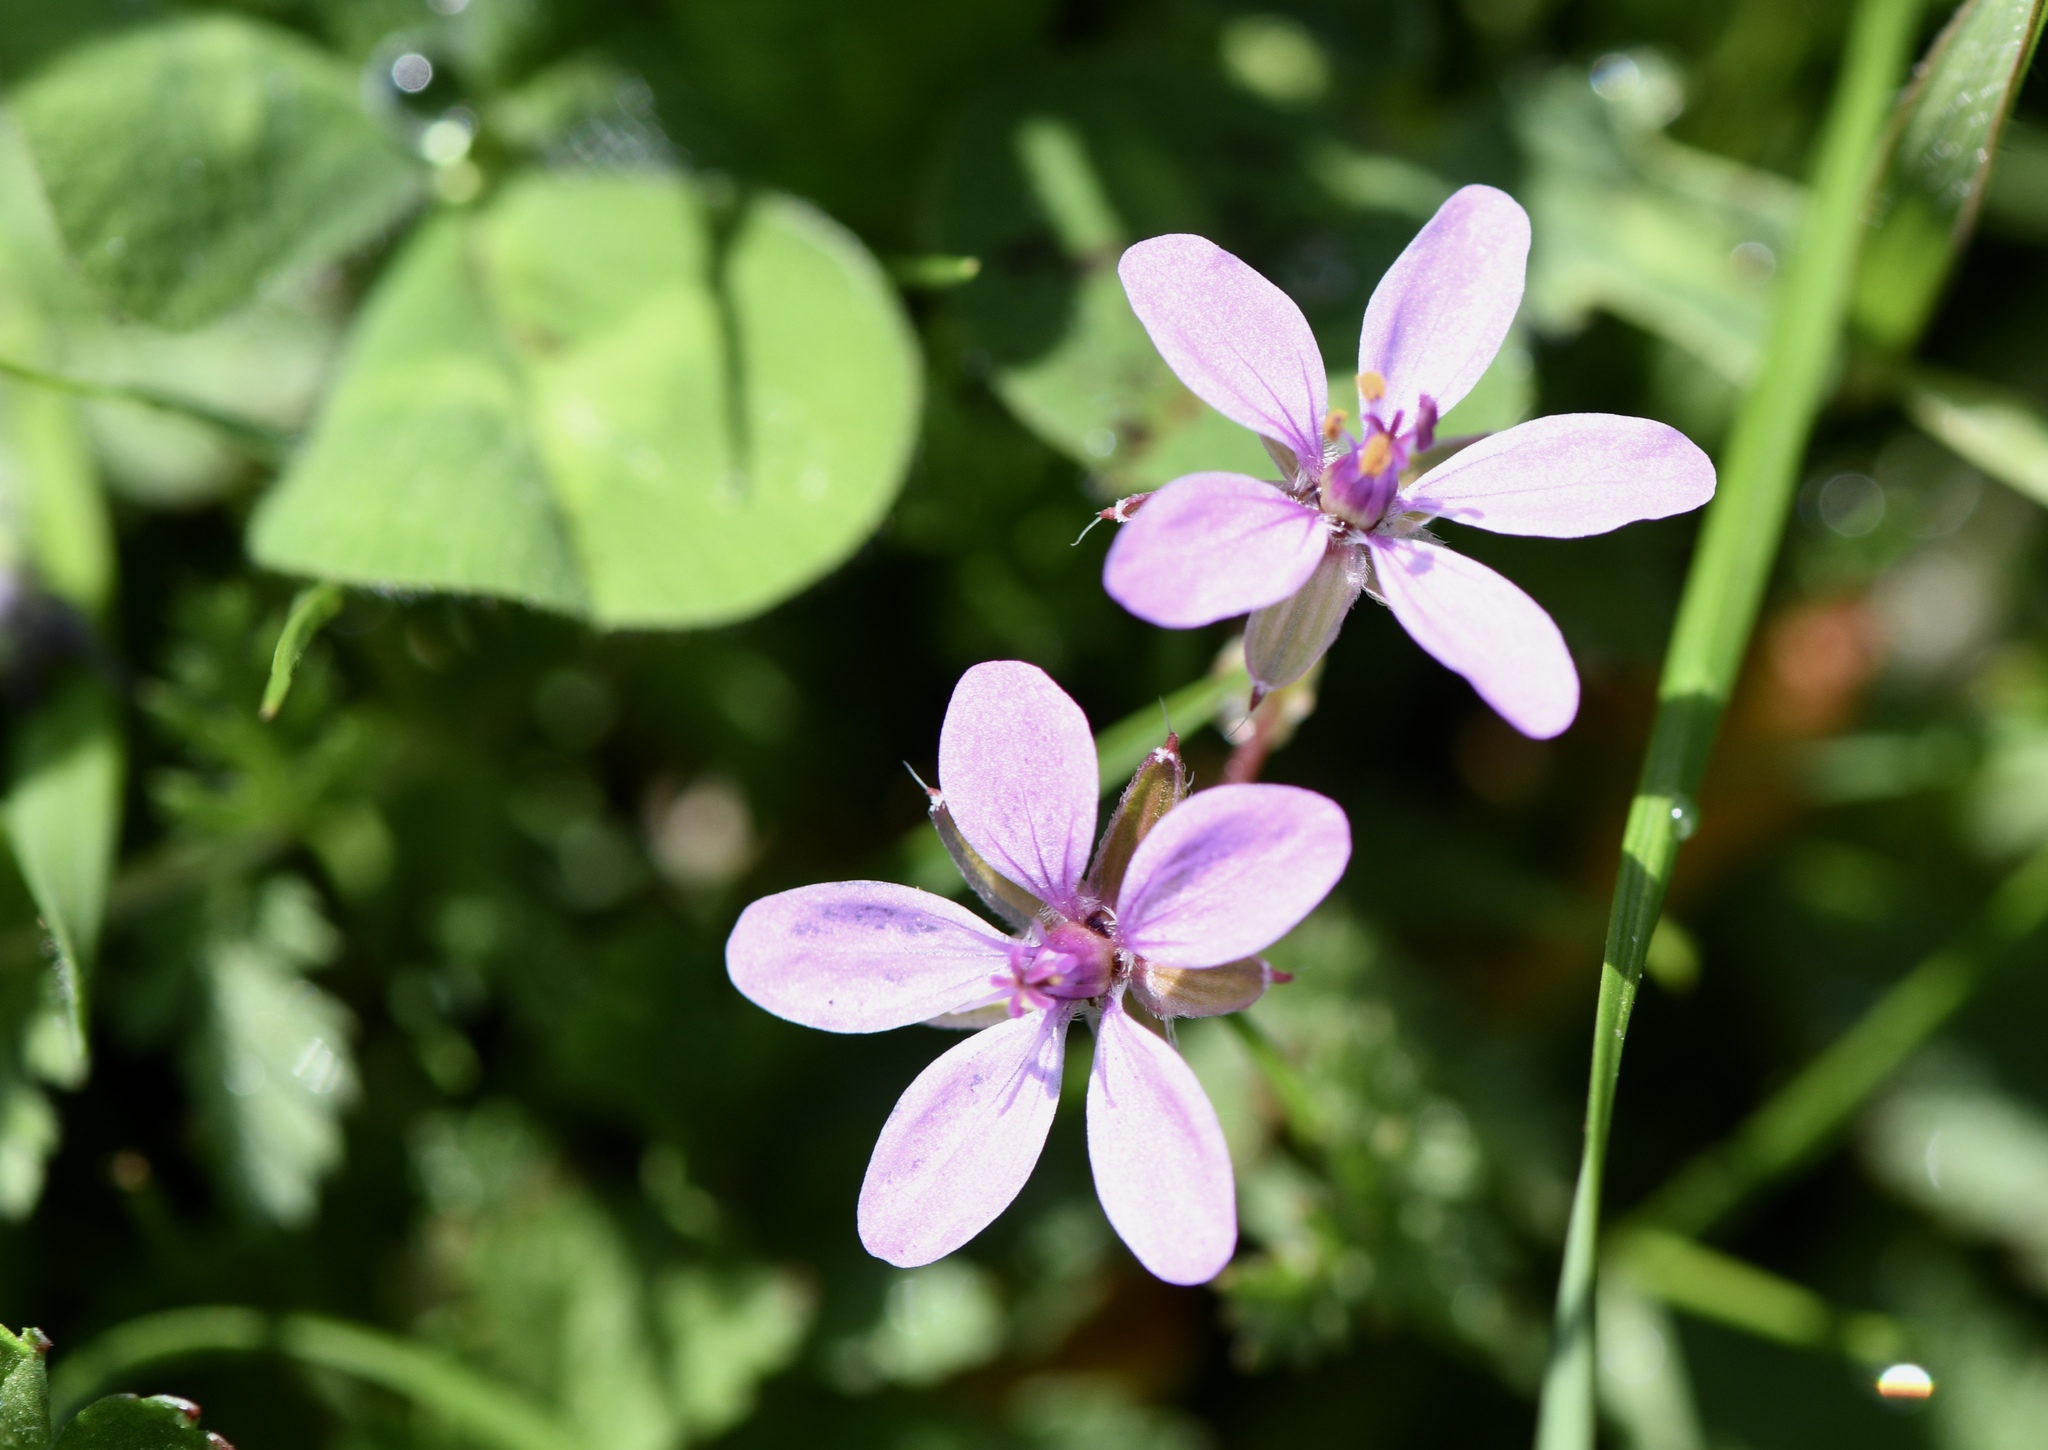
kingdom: Plantae
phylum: Tracheophyta
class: Magnoliopsida
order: Geraniales
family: Geraniaceae
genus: Erodium
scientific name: Erodium cicutarium
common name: Common stork's-bill
